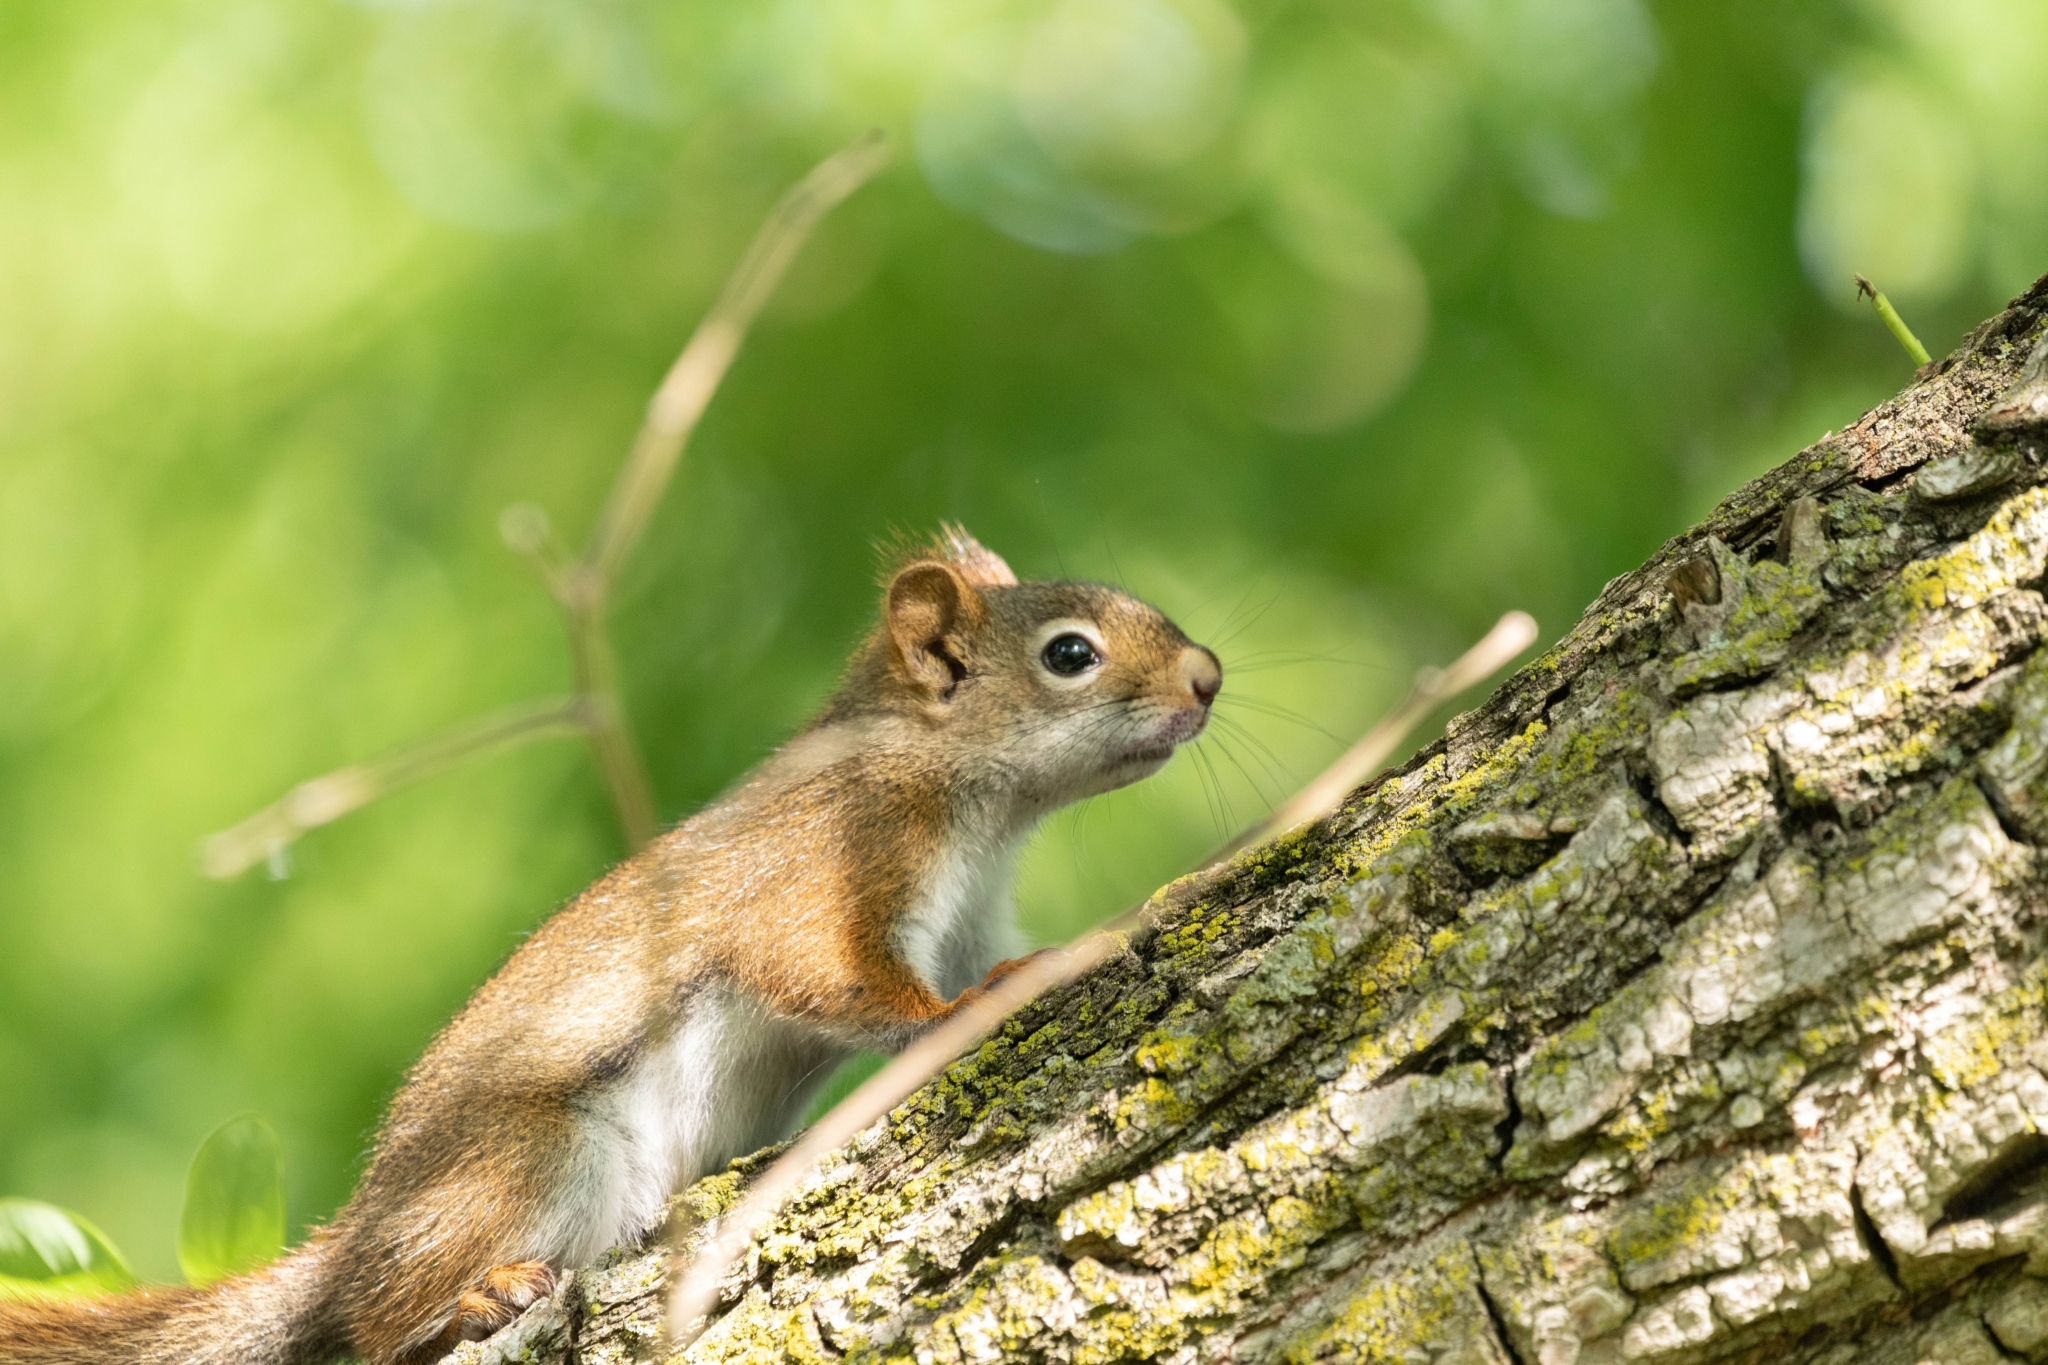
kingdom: Animalia
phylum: Chordata
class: Mammalia
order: Rodentia
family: Sciuridae
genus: Tamiasciurus
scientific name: Tamiasciurus hudsonicus
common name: Red squirrel
